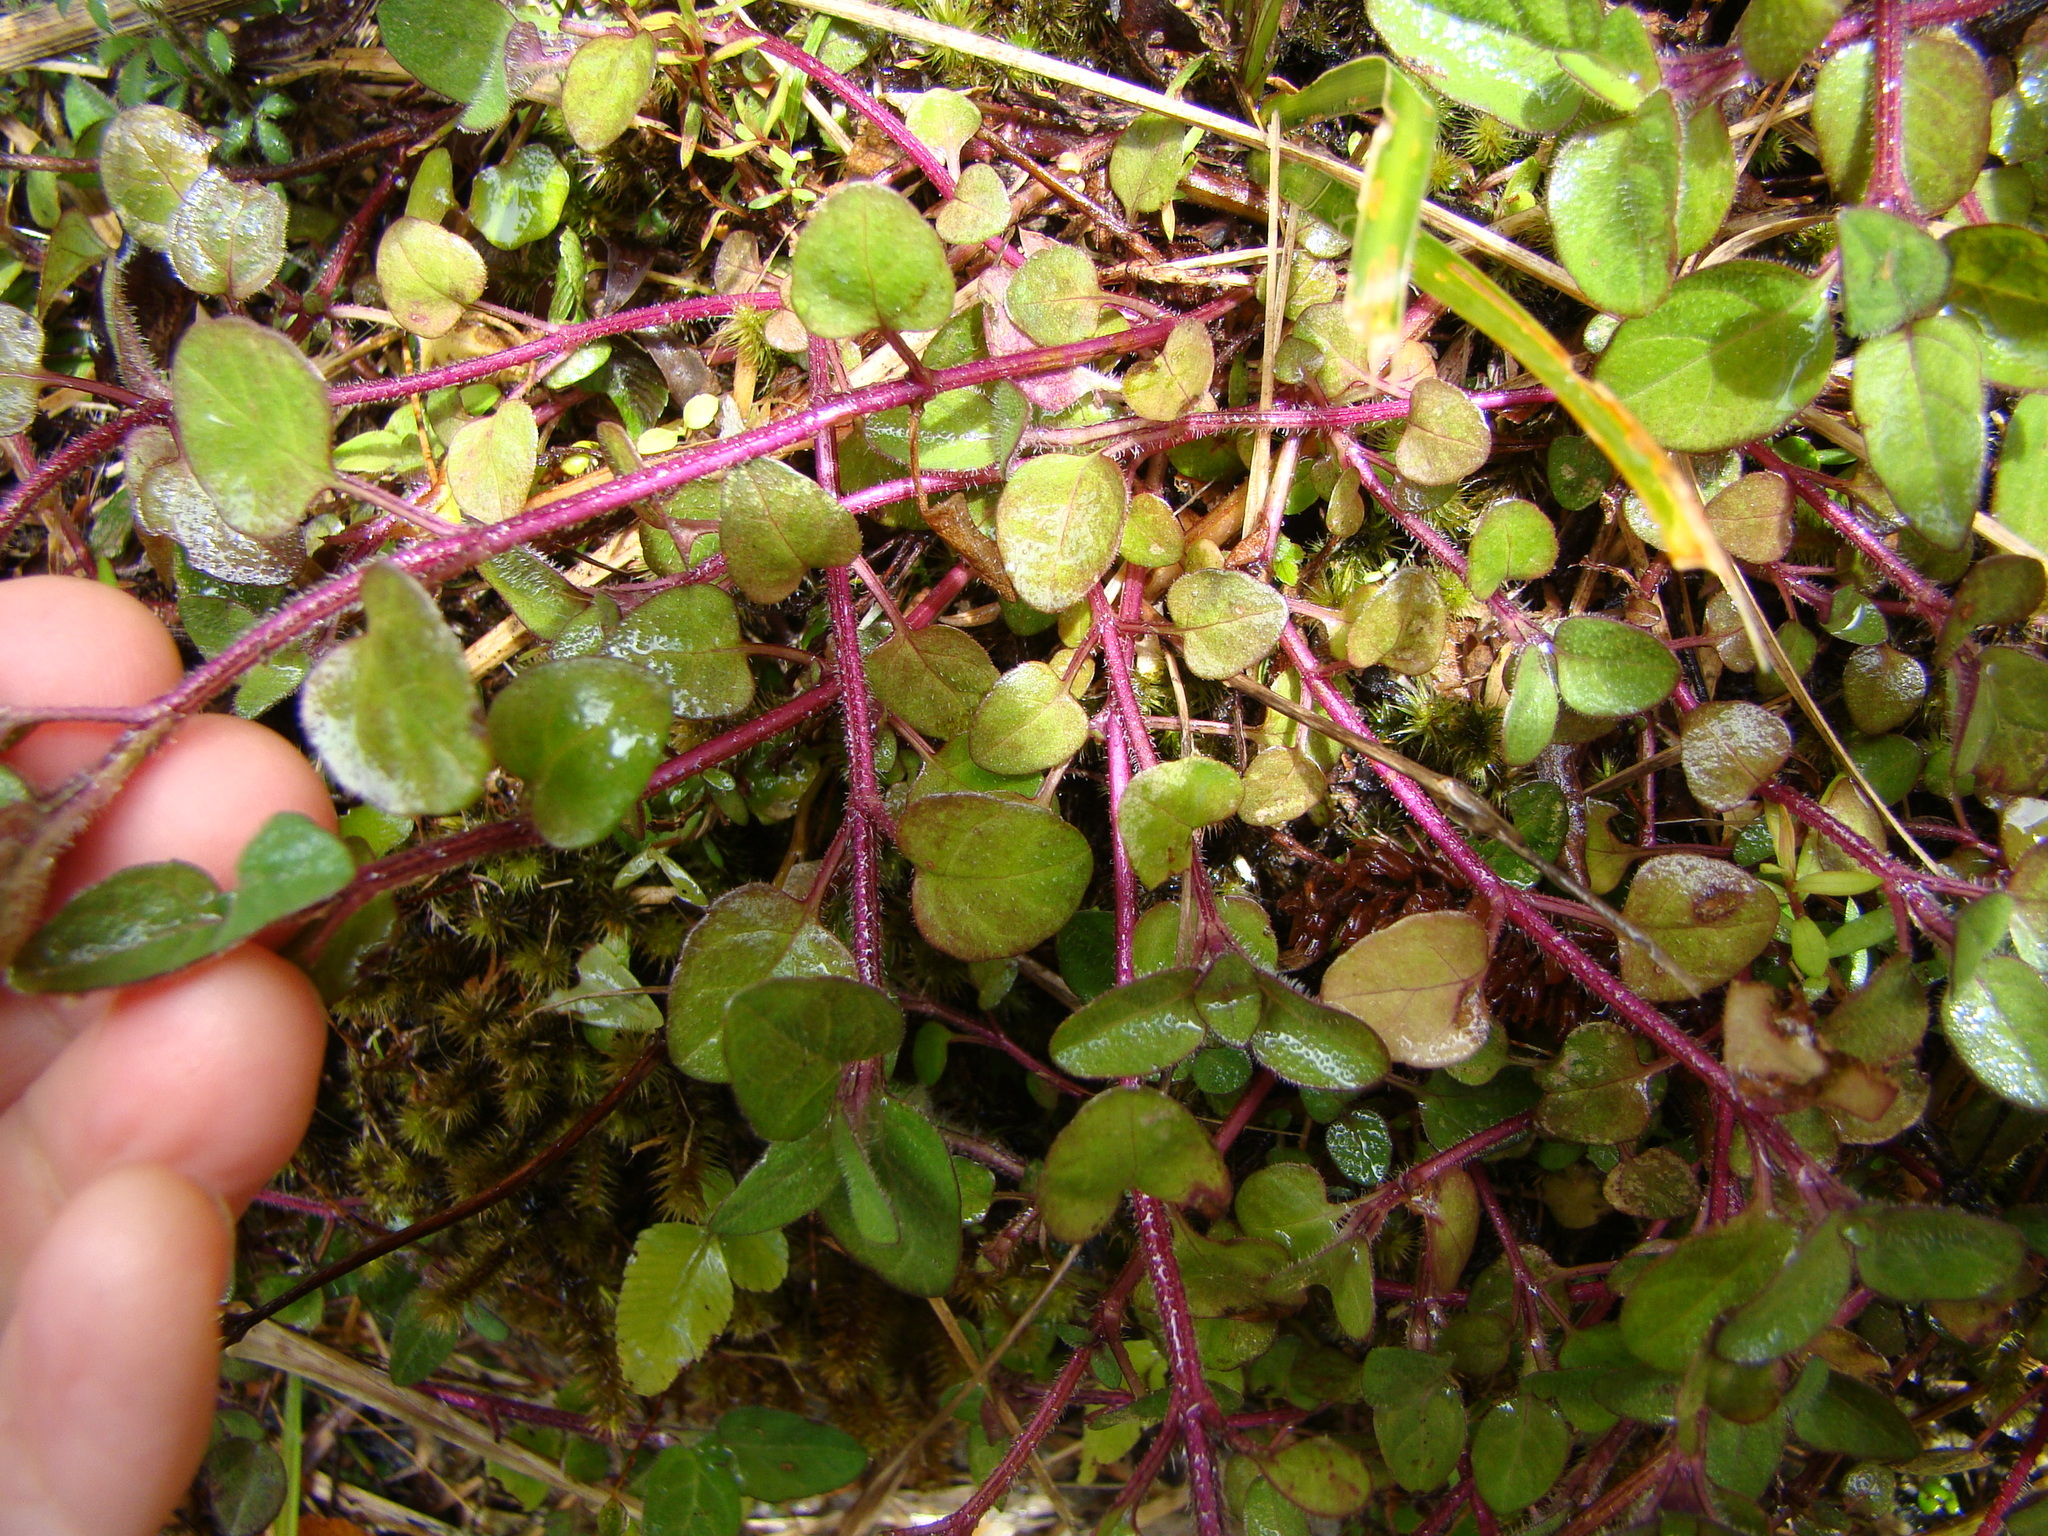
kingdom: Plantae
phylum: Tracheophyta
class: Magnoliopsida
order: Lamiales
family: Lamiaceae
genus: Prunella
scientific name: Prunella vulgaris
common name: Heal-all
